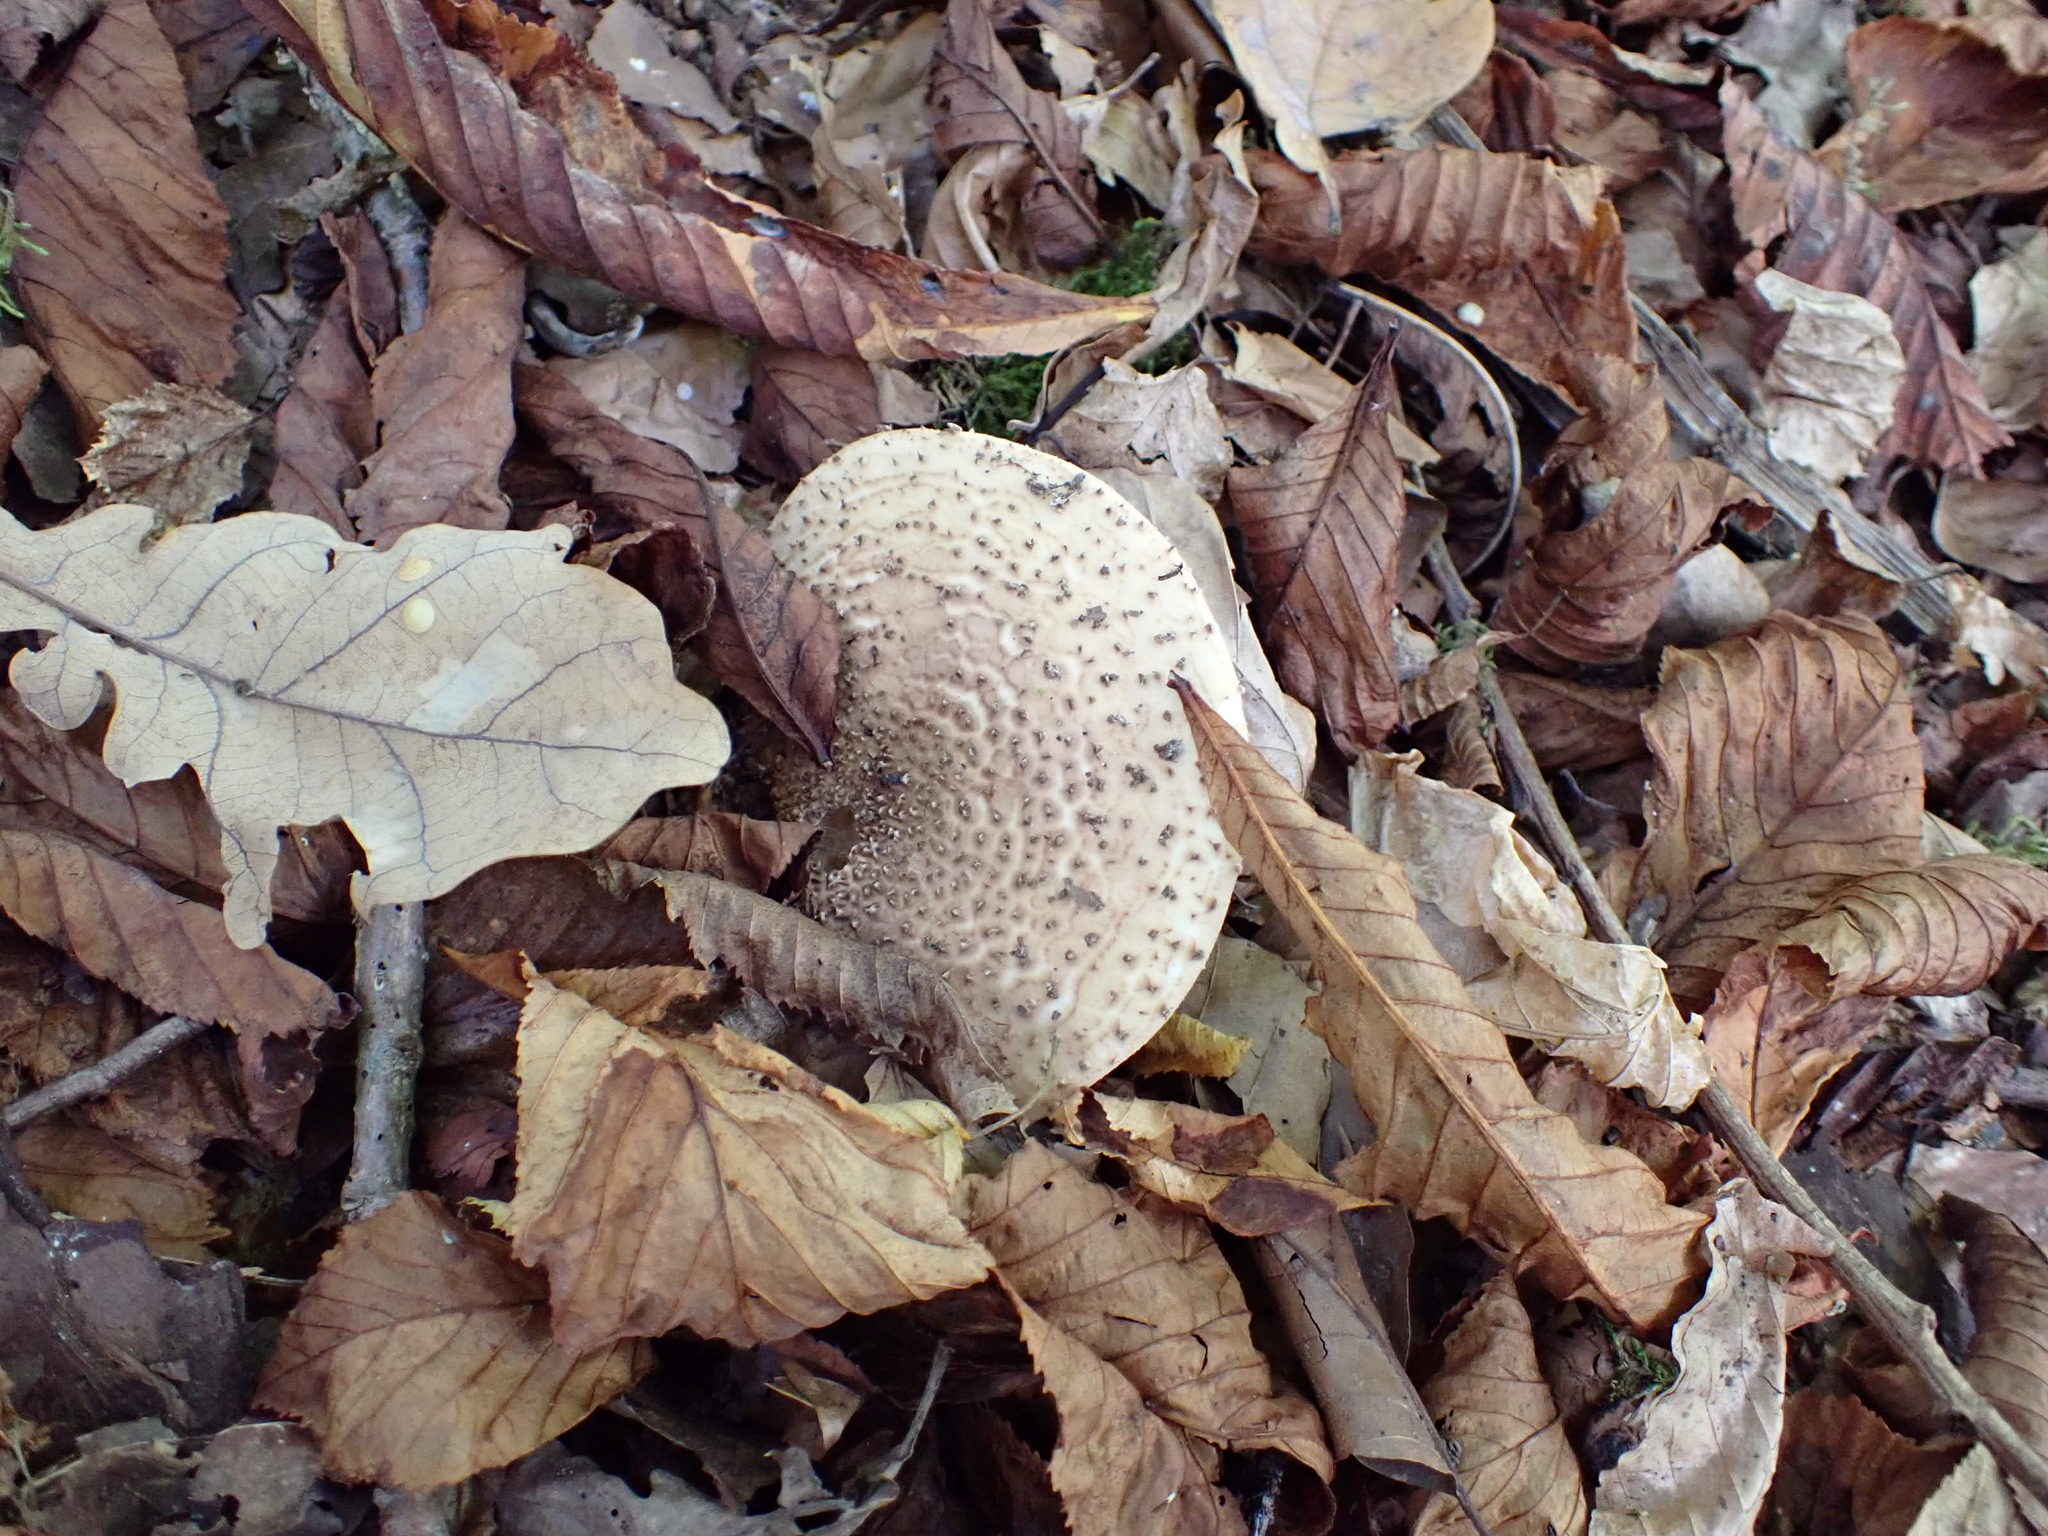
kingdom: Fungi
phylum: Basidiomycota
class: Agaricomycetes
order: Agaricales
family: Agaricaceae
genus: Echinoderma
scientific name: Echinoderma asperum
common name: Freckled dapperling
